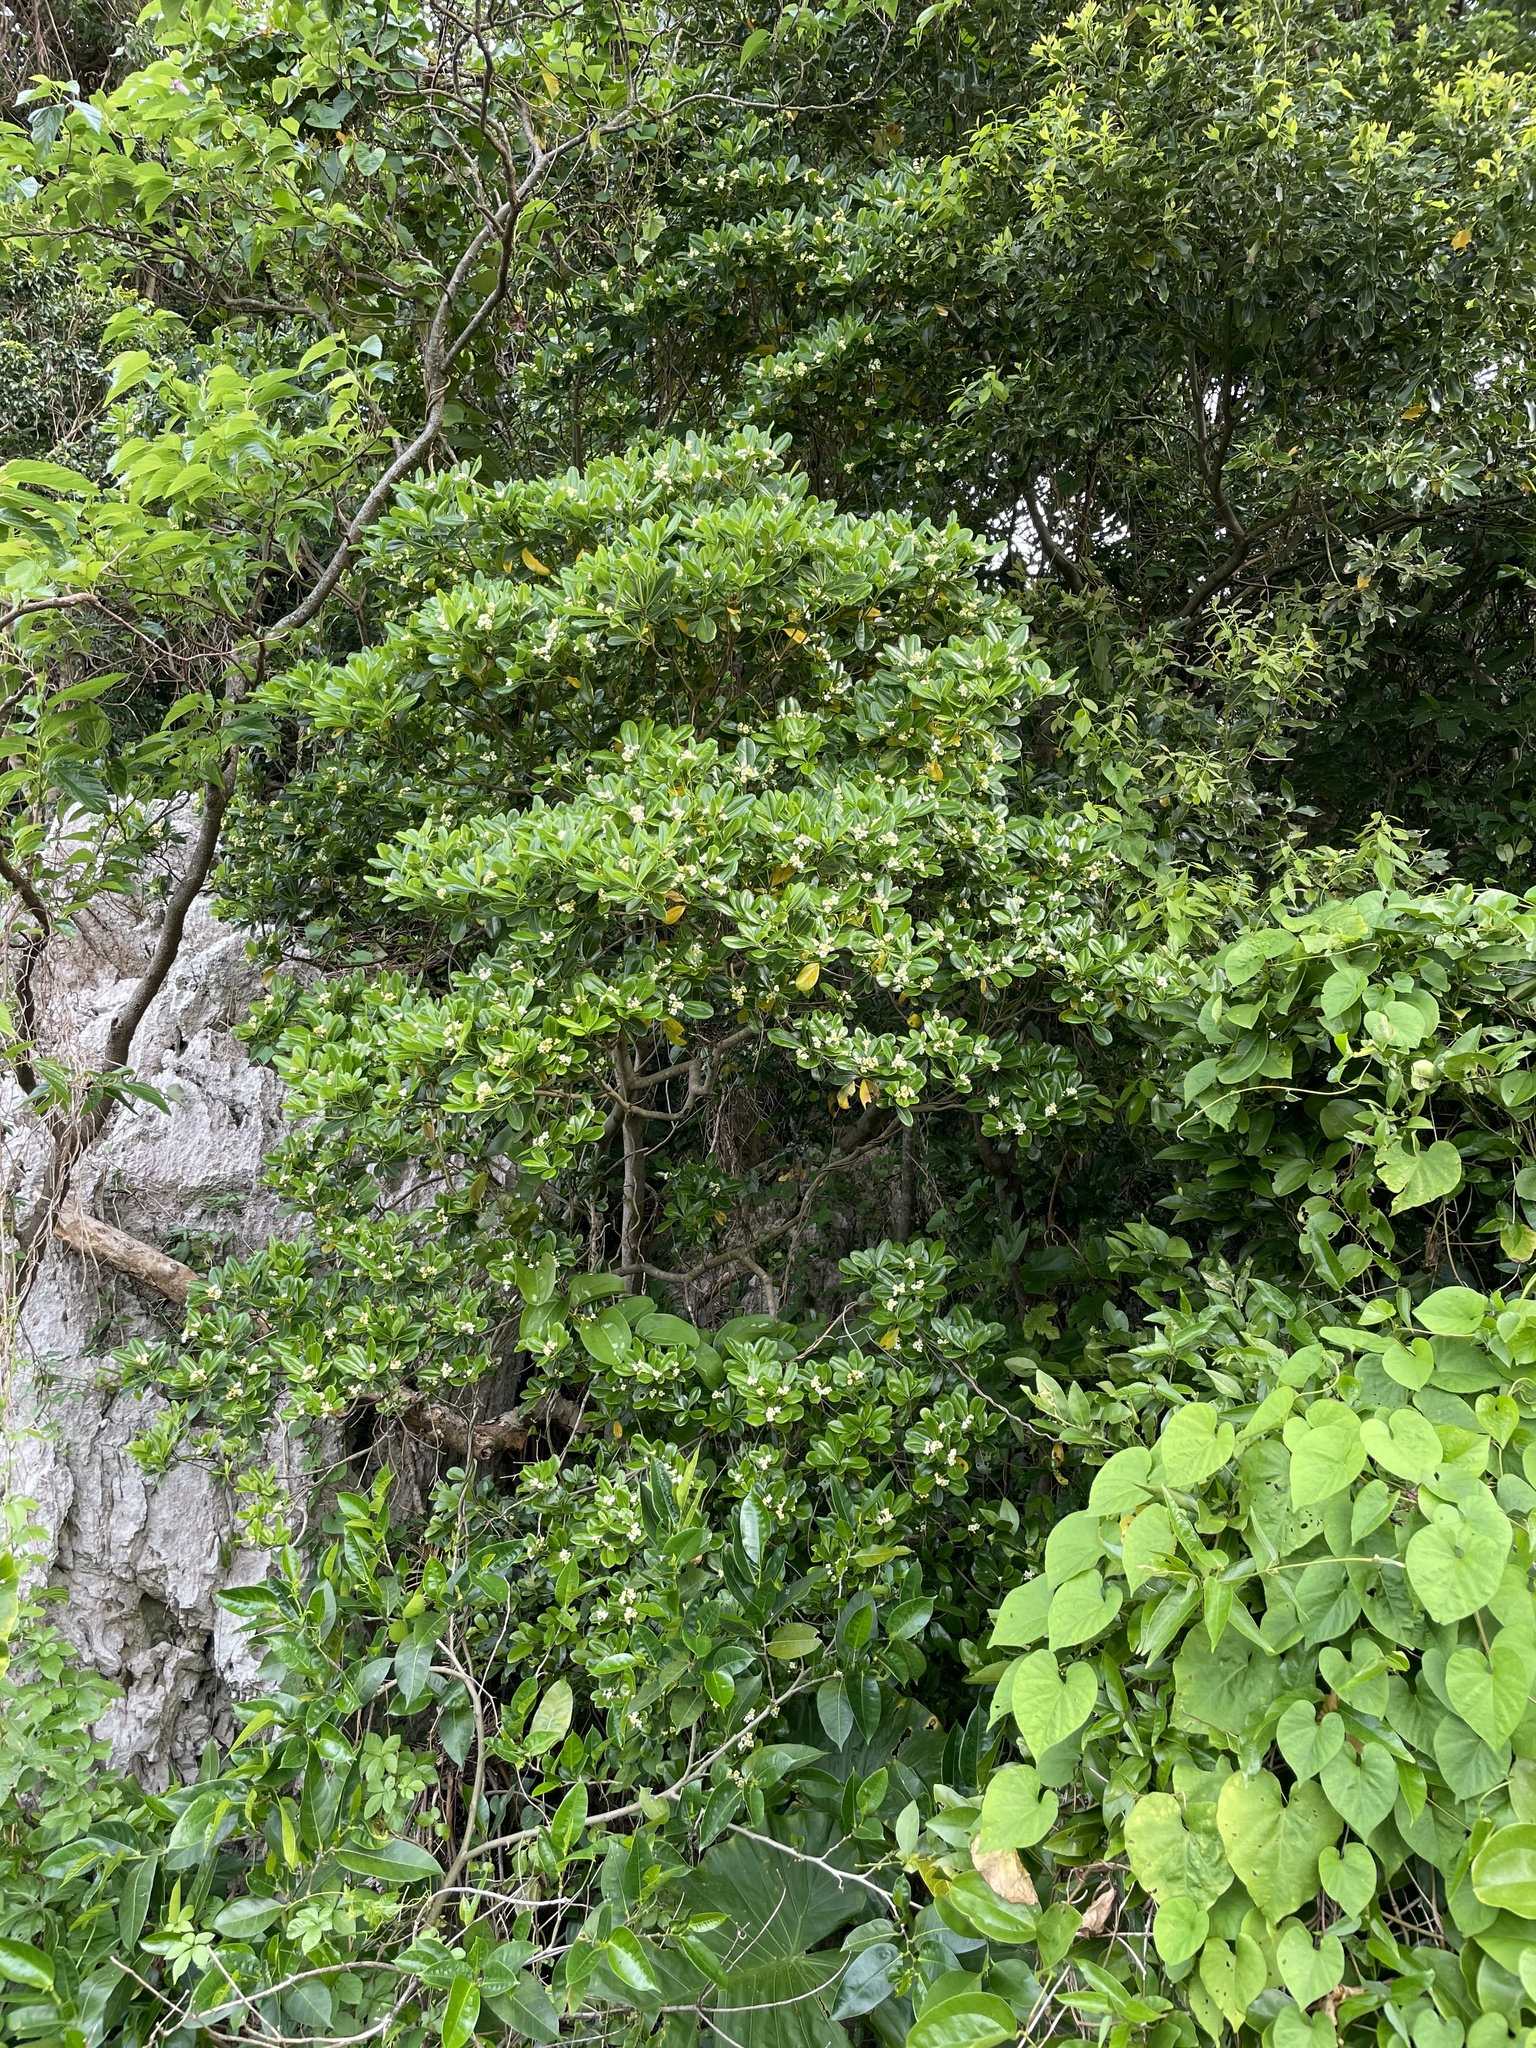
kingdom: Plantae
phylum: Tracheophyta
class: Magnoliopsida
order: Apiales
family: Pittosporaceae
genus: Pittosporum
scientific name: Pittosporum tobira
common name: Japanese cheesewood
